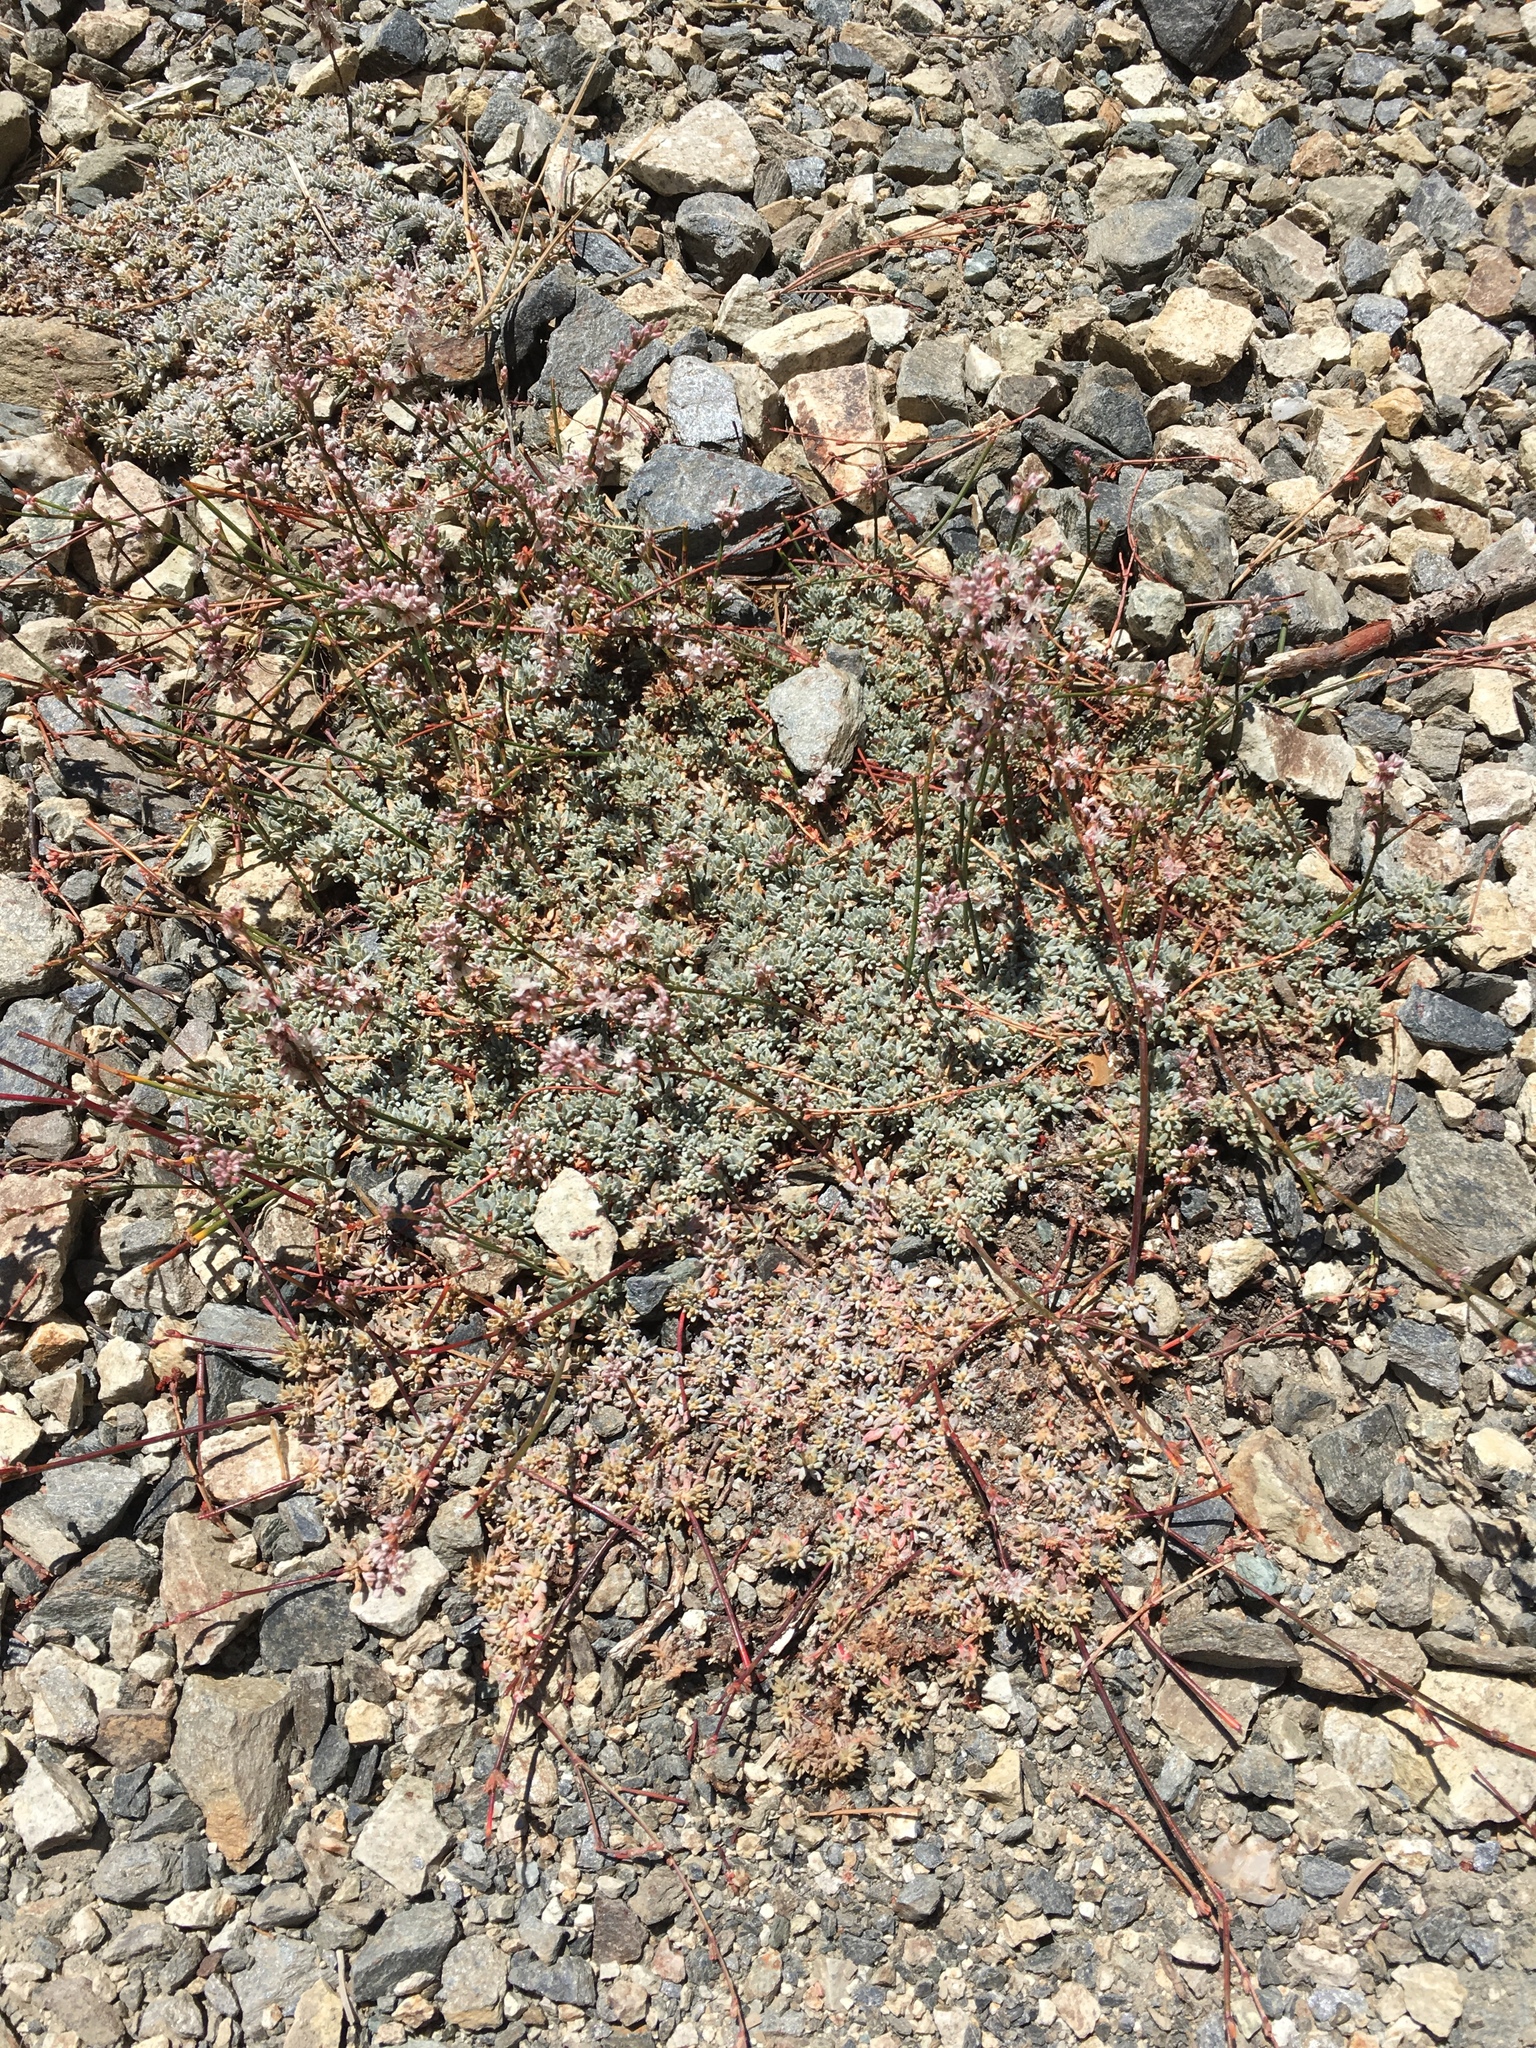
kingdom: Plantae
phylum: Tracheophyta
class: Magnoliopsida
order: Caryophyllales
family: Polygonaceae
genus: Eriogonum
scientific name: Eriogonum wrightii
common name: Bastard-sage
